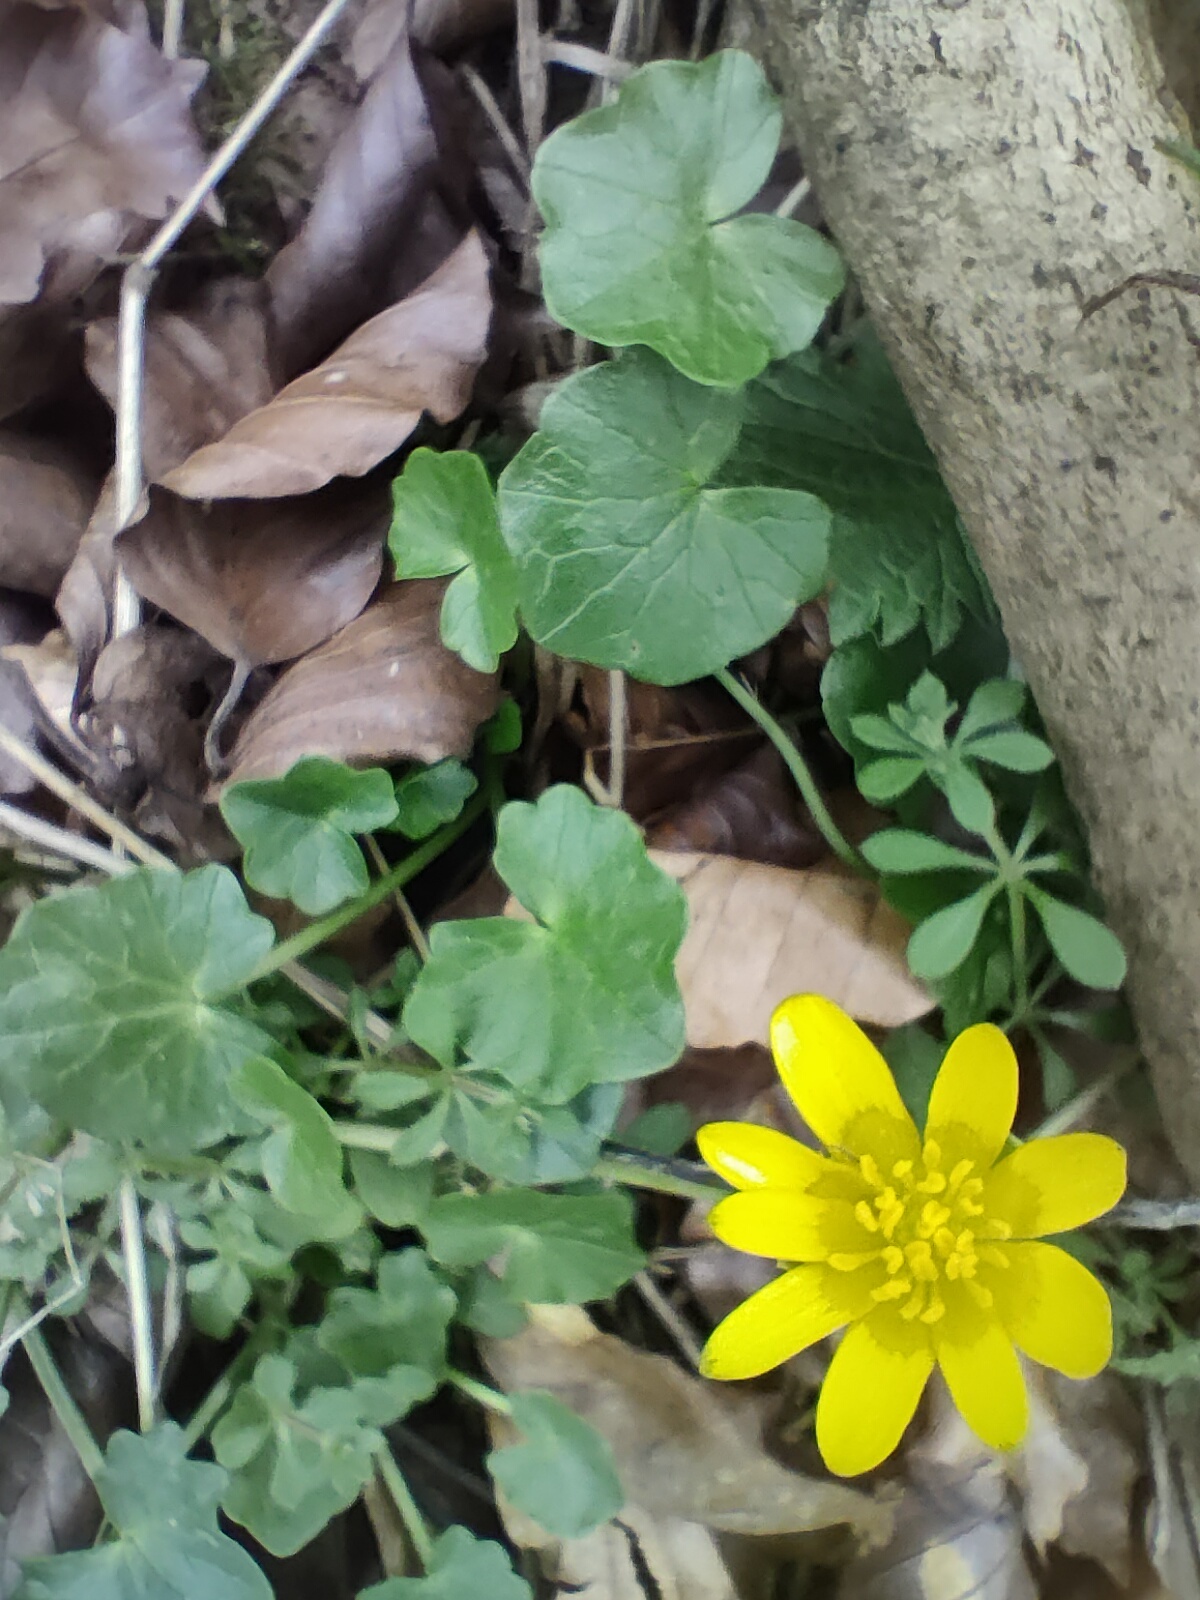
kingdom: Plantae
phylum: Tracheophyta
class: Magnoliopsida
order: Ranunculales
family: Ranunculaceae
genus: Ficaria
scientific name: Ficaria verna
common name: Lesser celandine
